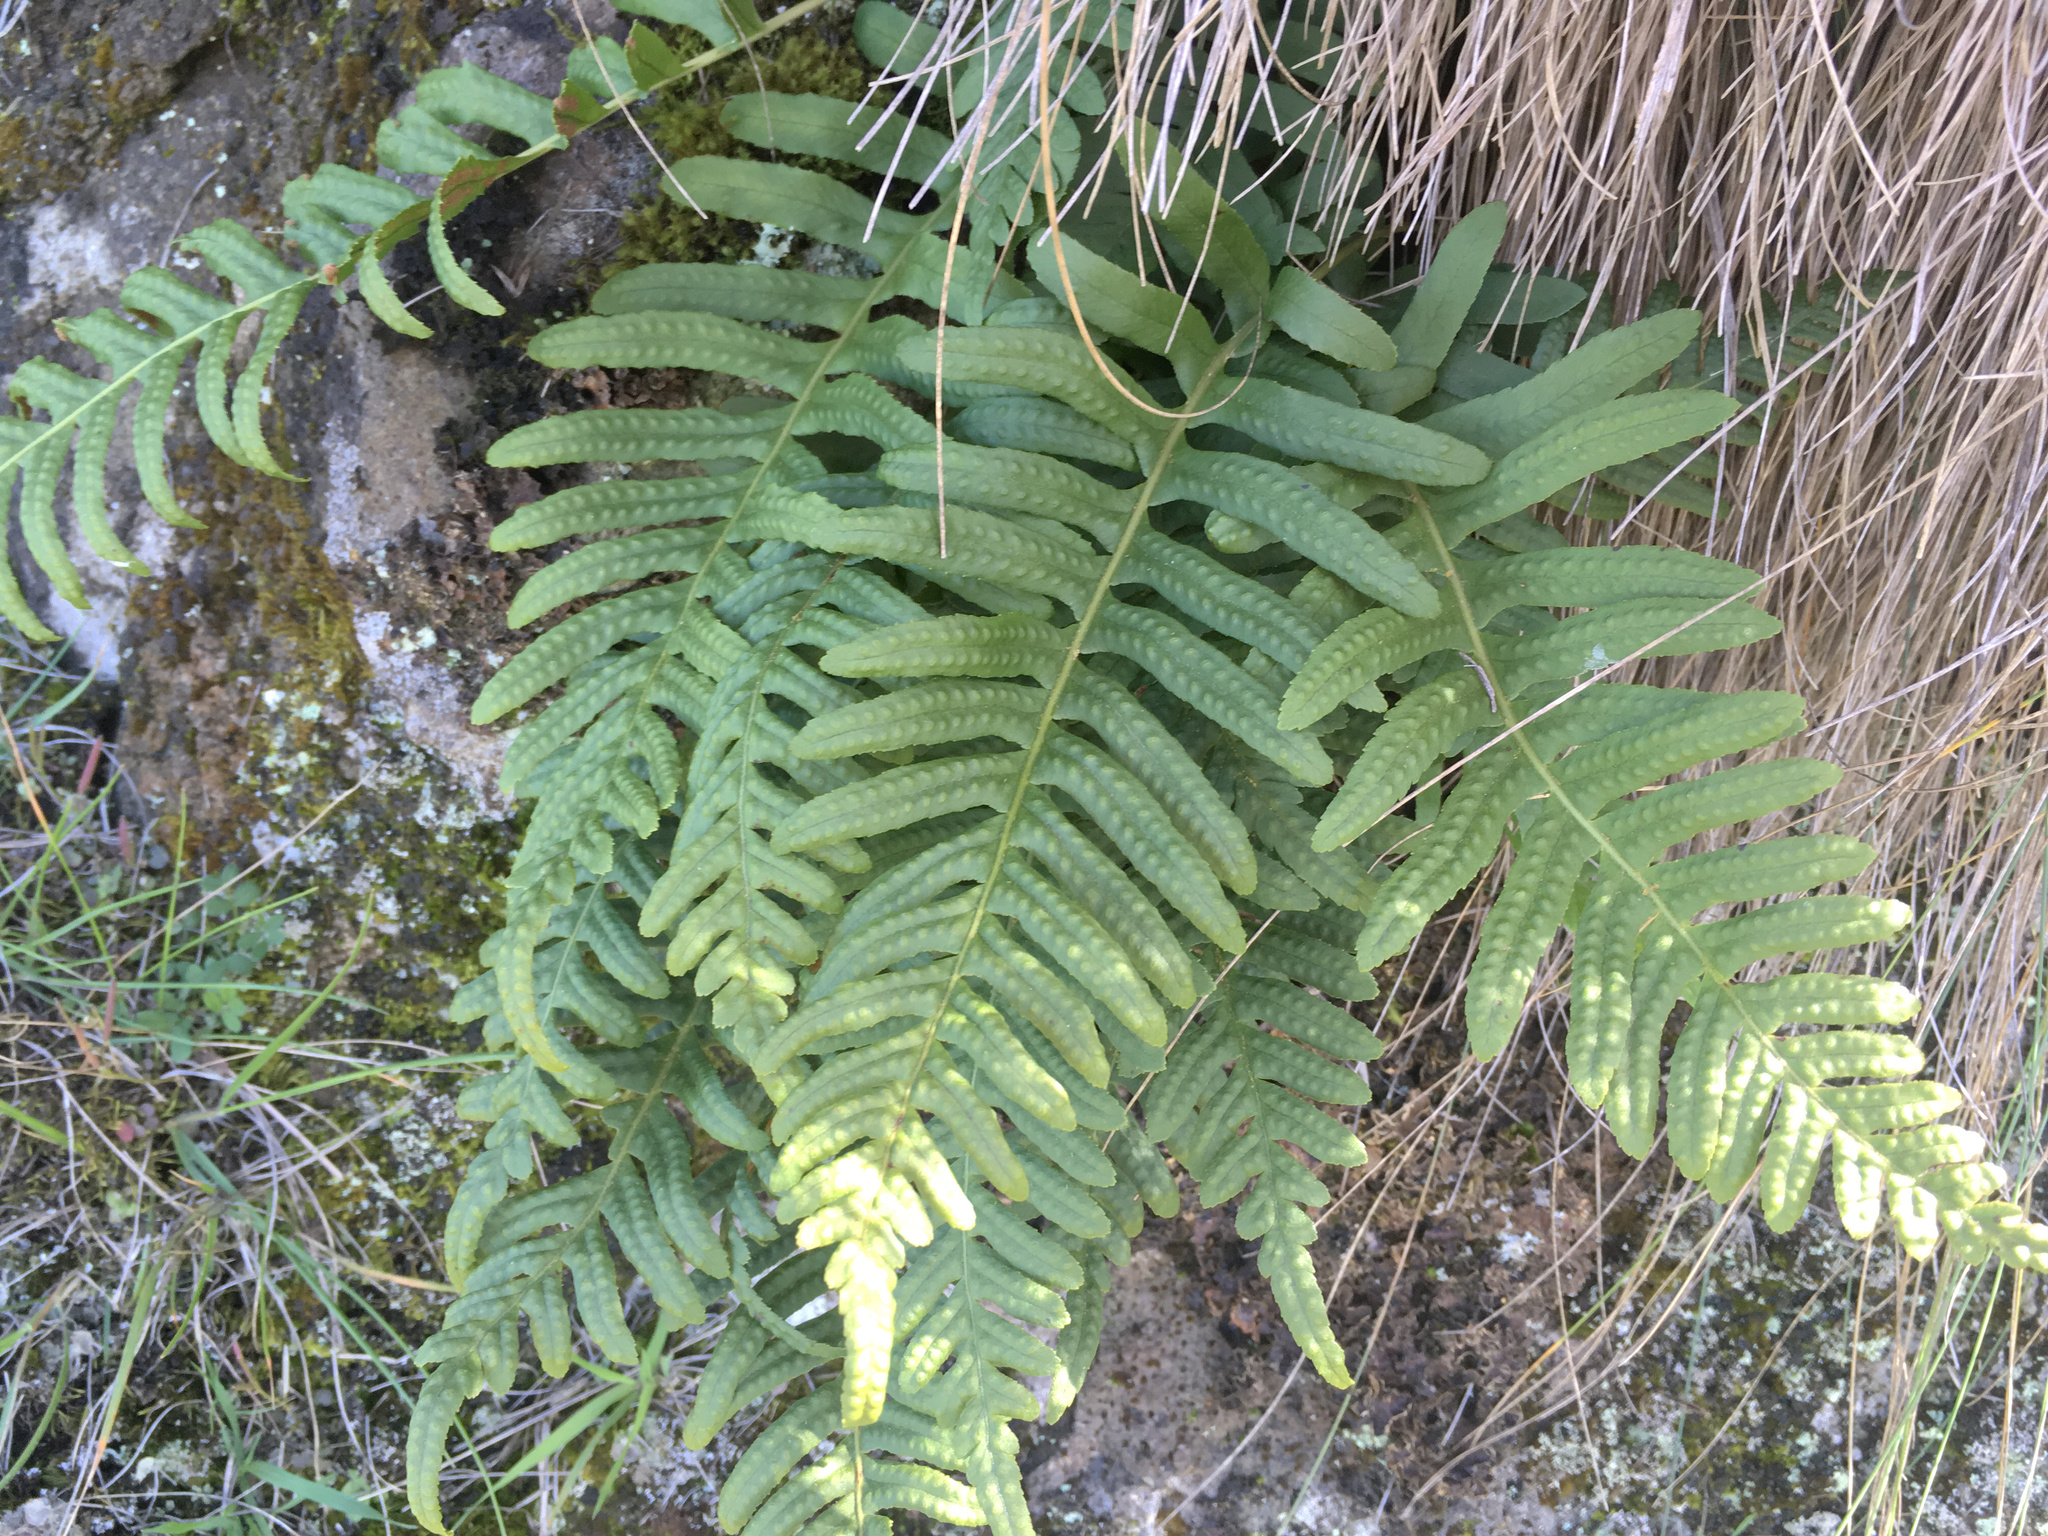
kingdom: Plantae
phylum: Tracheophyta
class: Polypodiopsida
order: Polypodiales
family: Polypodiaceae
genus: Polypodium
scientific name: Polypodium vulgare
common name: Common polypody
